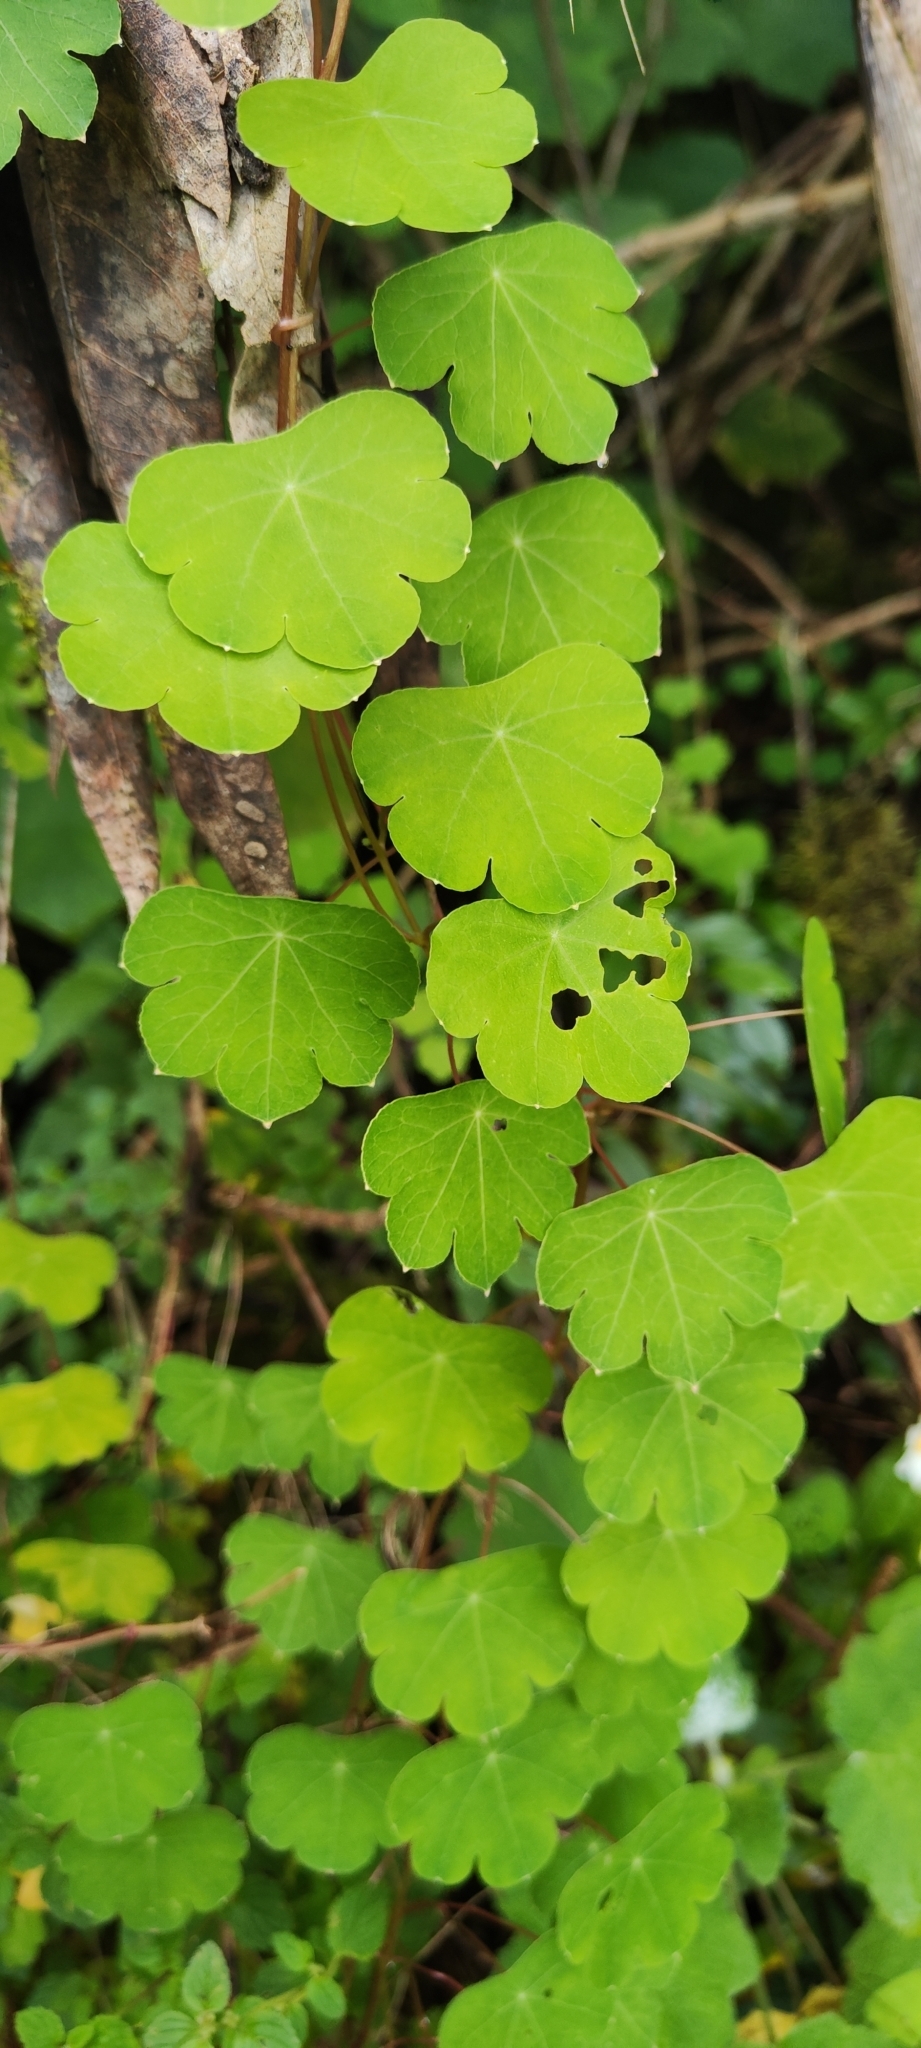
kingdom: Plantae
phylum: Tracheophyta
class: Magnoliopsida
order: Brassicales
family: Tropaeolaceae
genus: Tropaeolum
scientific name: Tropaeolum tuberosum
